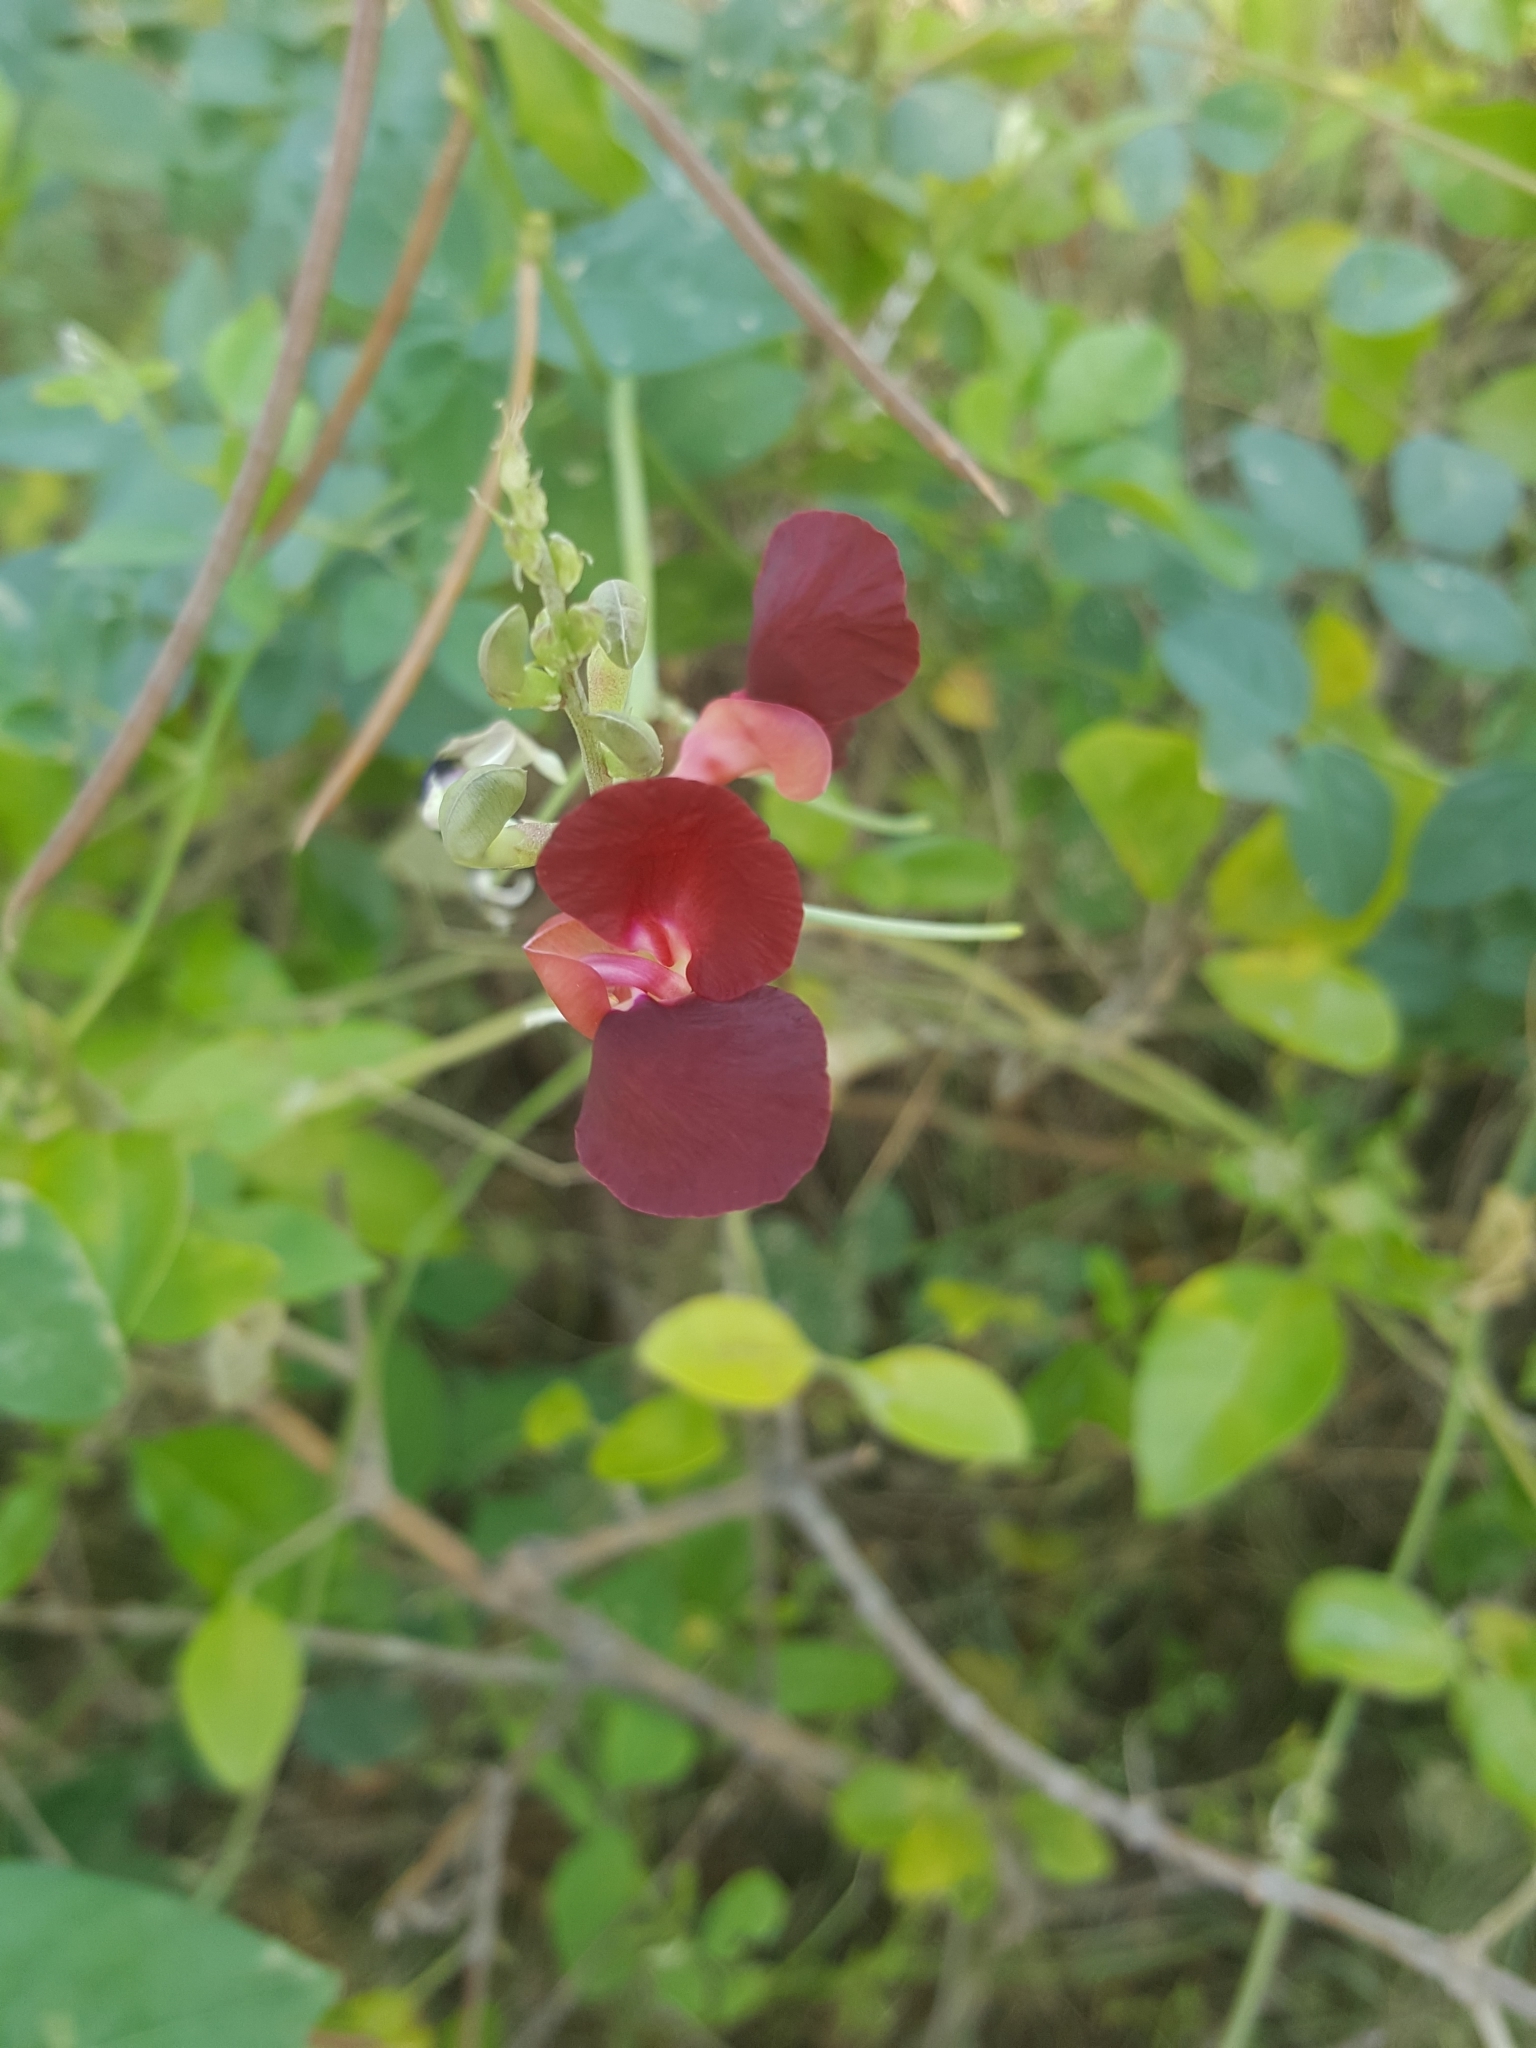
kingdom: Plantae
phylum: Tracheophyta
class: Magnoliopsida
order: Fabales
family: Fabaceae
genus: Macroptilium
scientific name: Macroptilium lathyroides
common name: Wild bushbean
